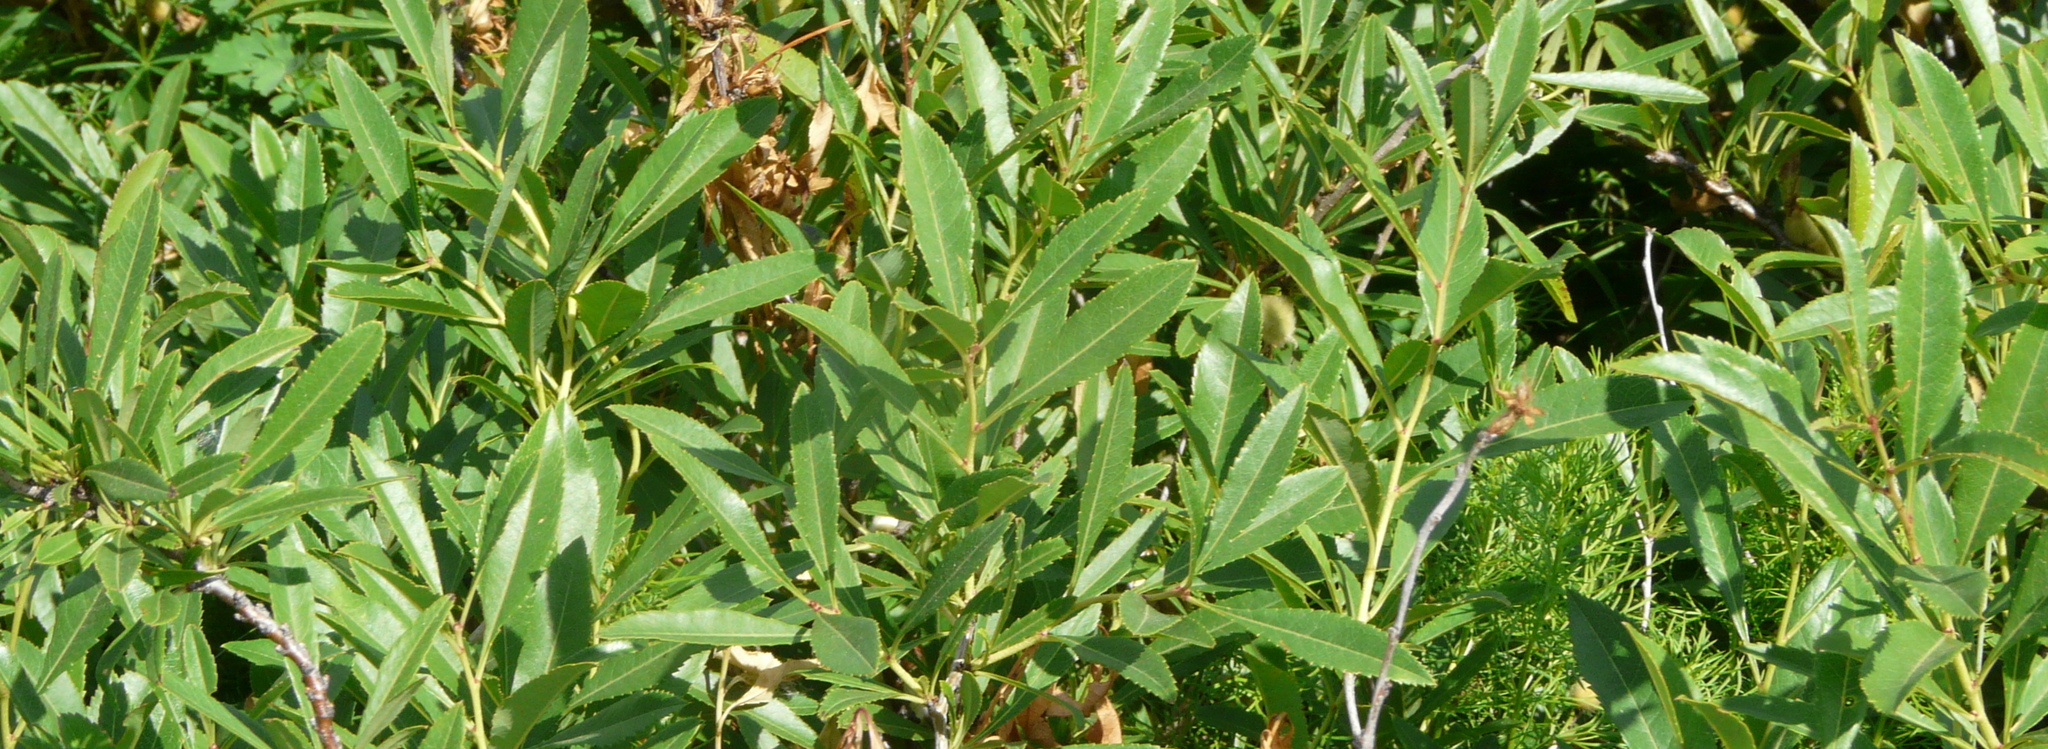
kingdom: Plantae
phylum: Tracheophyta
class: Magnoliopsida
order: Rosales
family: Rosaceae
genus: Prunus
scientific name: Prunus tenella
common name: Dwarf russian almond
